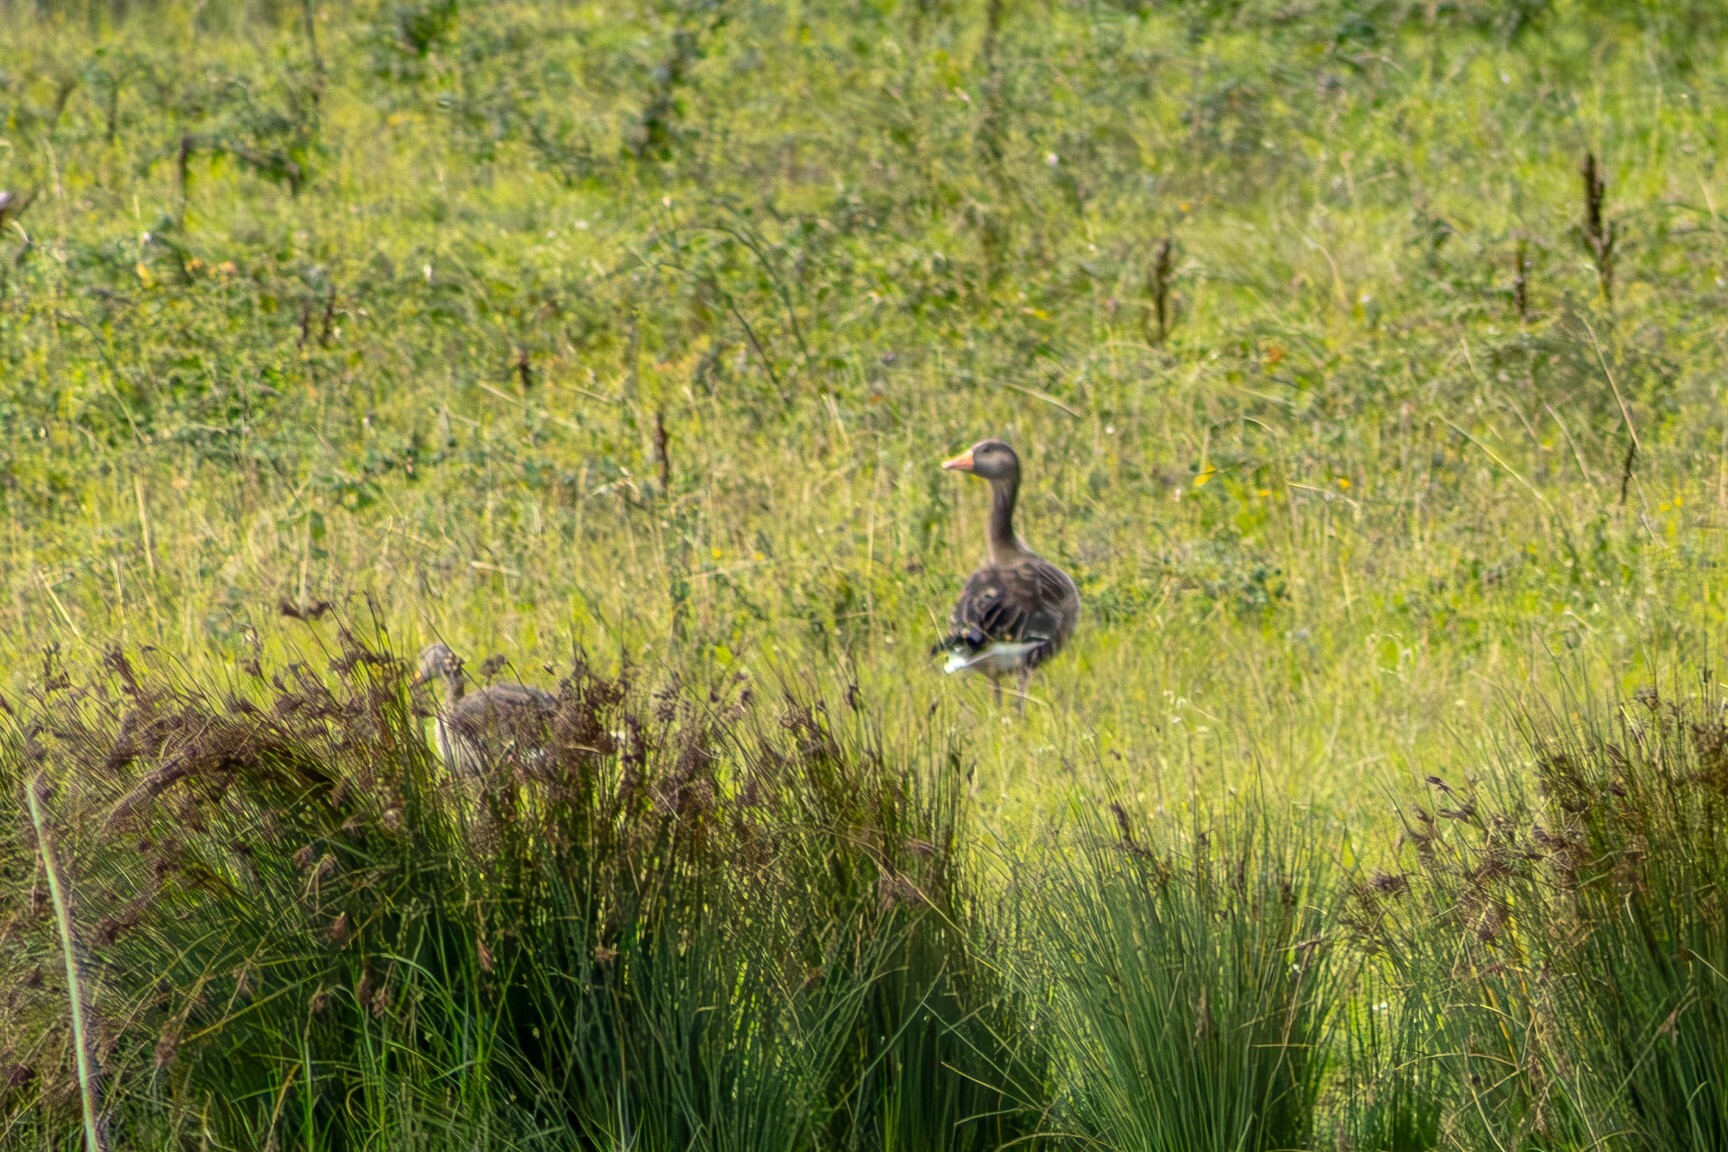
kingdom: Animalia
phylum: Chordata
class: Aves
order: Anseriformes
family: Anatidae
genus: Anser
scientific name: Anser anser
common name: Greylag goose
